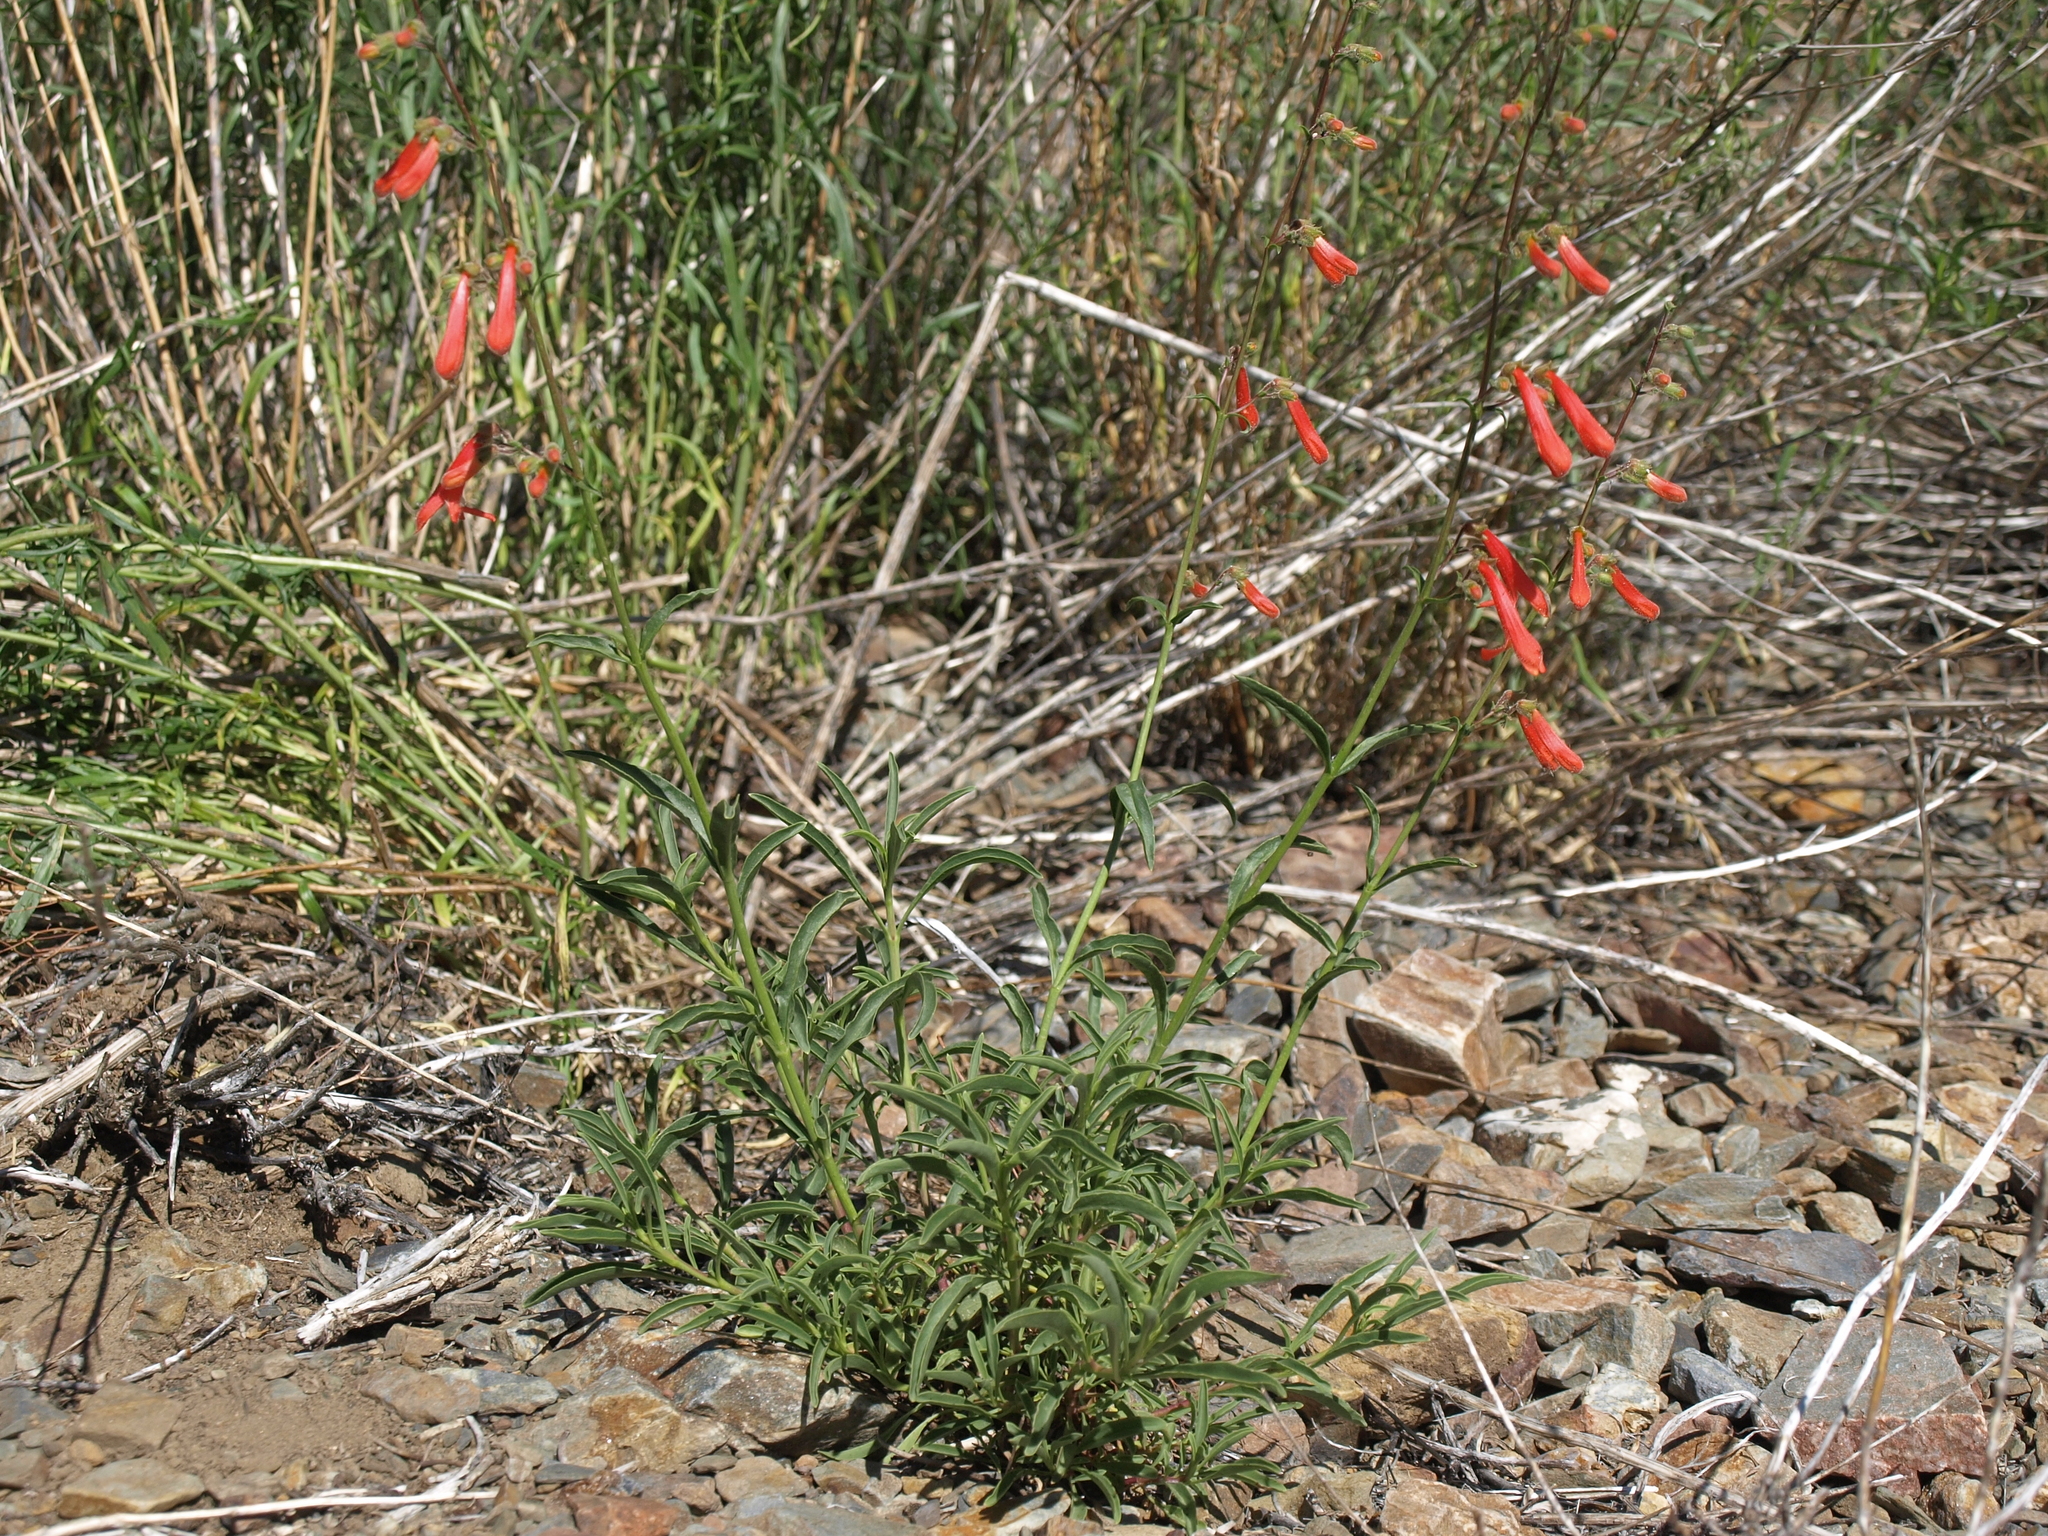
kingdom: Plantae
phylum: Tracheophyta
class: Magnoliopsida
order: Lamiales
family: Plantaginaceae
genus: Penstemon
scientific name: Penstemon rostriflorus
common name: Bridges's penstemon
